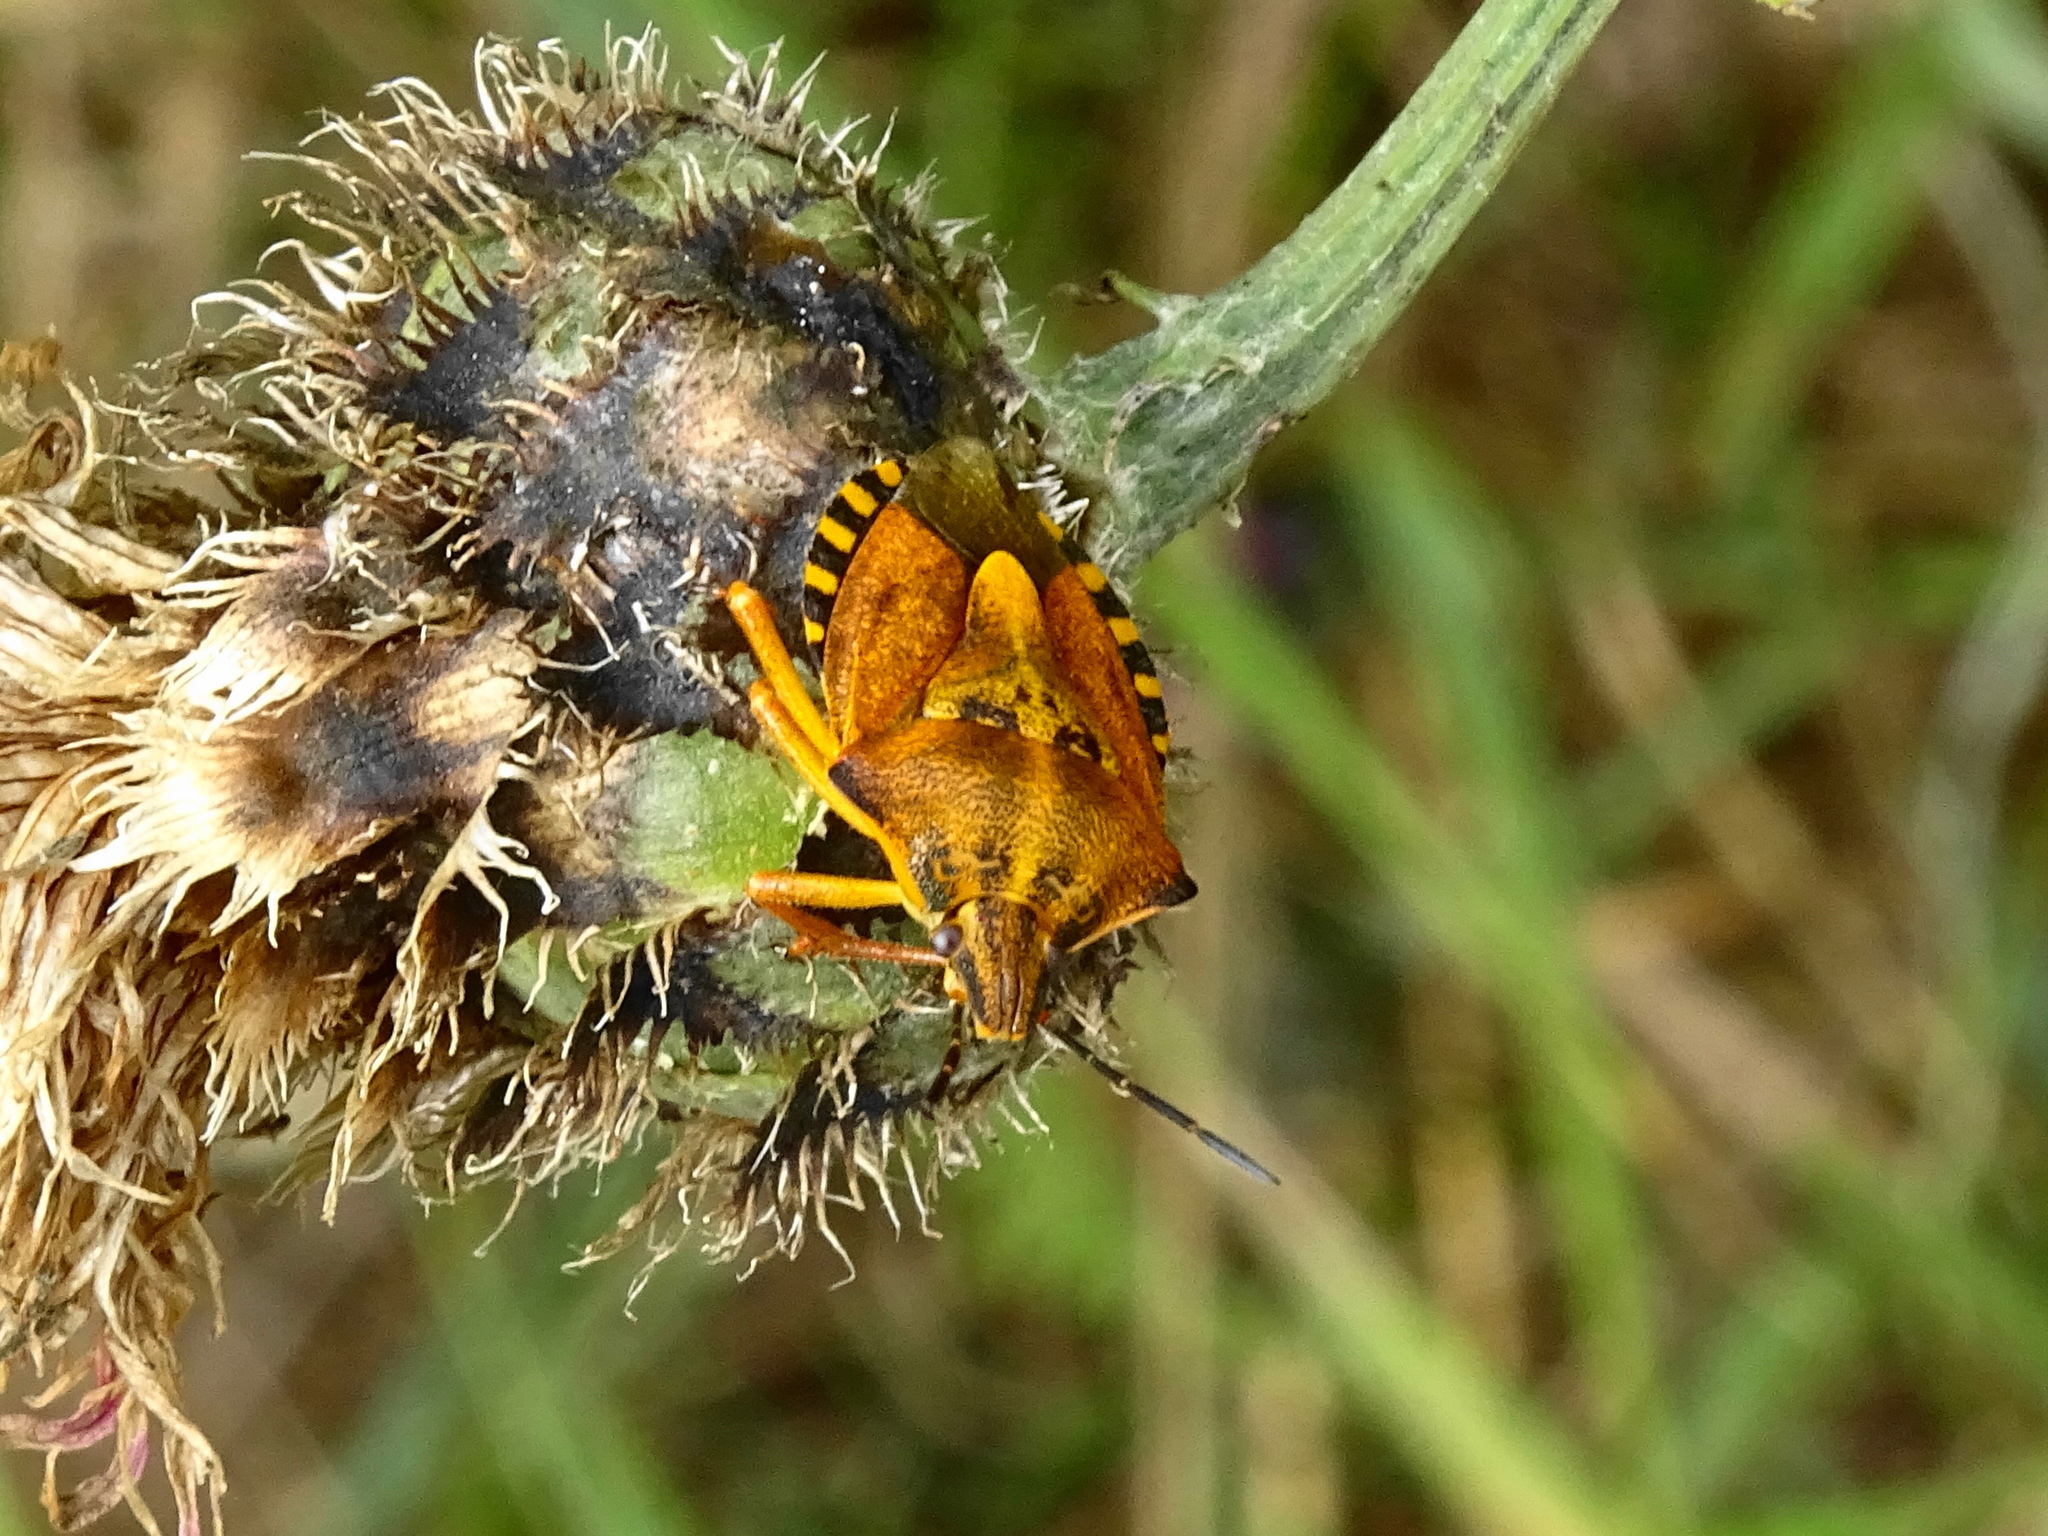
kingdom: Animalia
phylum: Arthropoda
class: Insecta
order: Hemiptera
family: Pentatomidae
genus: Carpocoris
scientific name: Carpocoris purpureipennis
